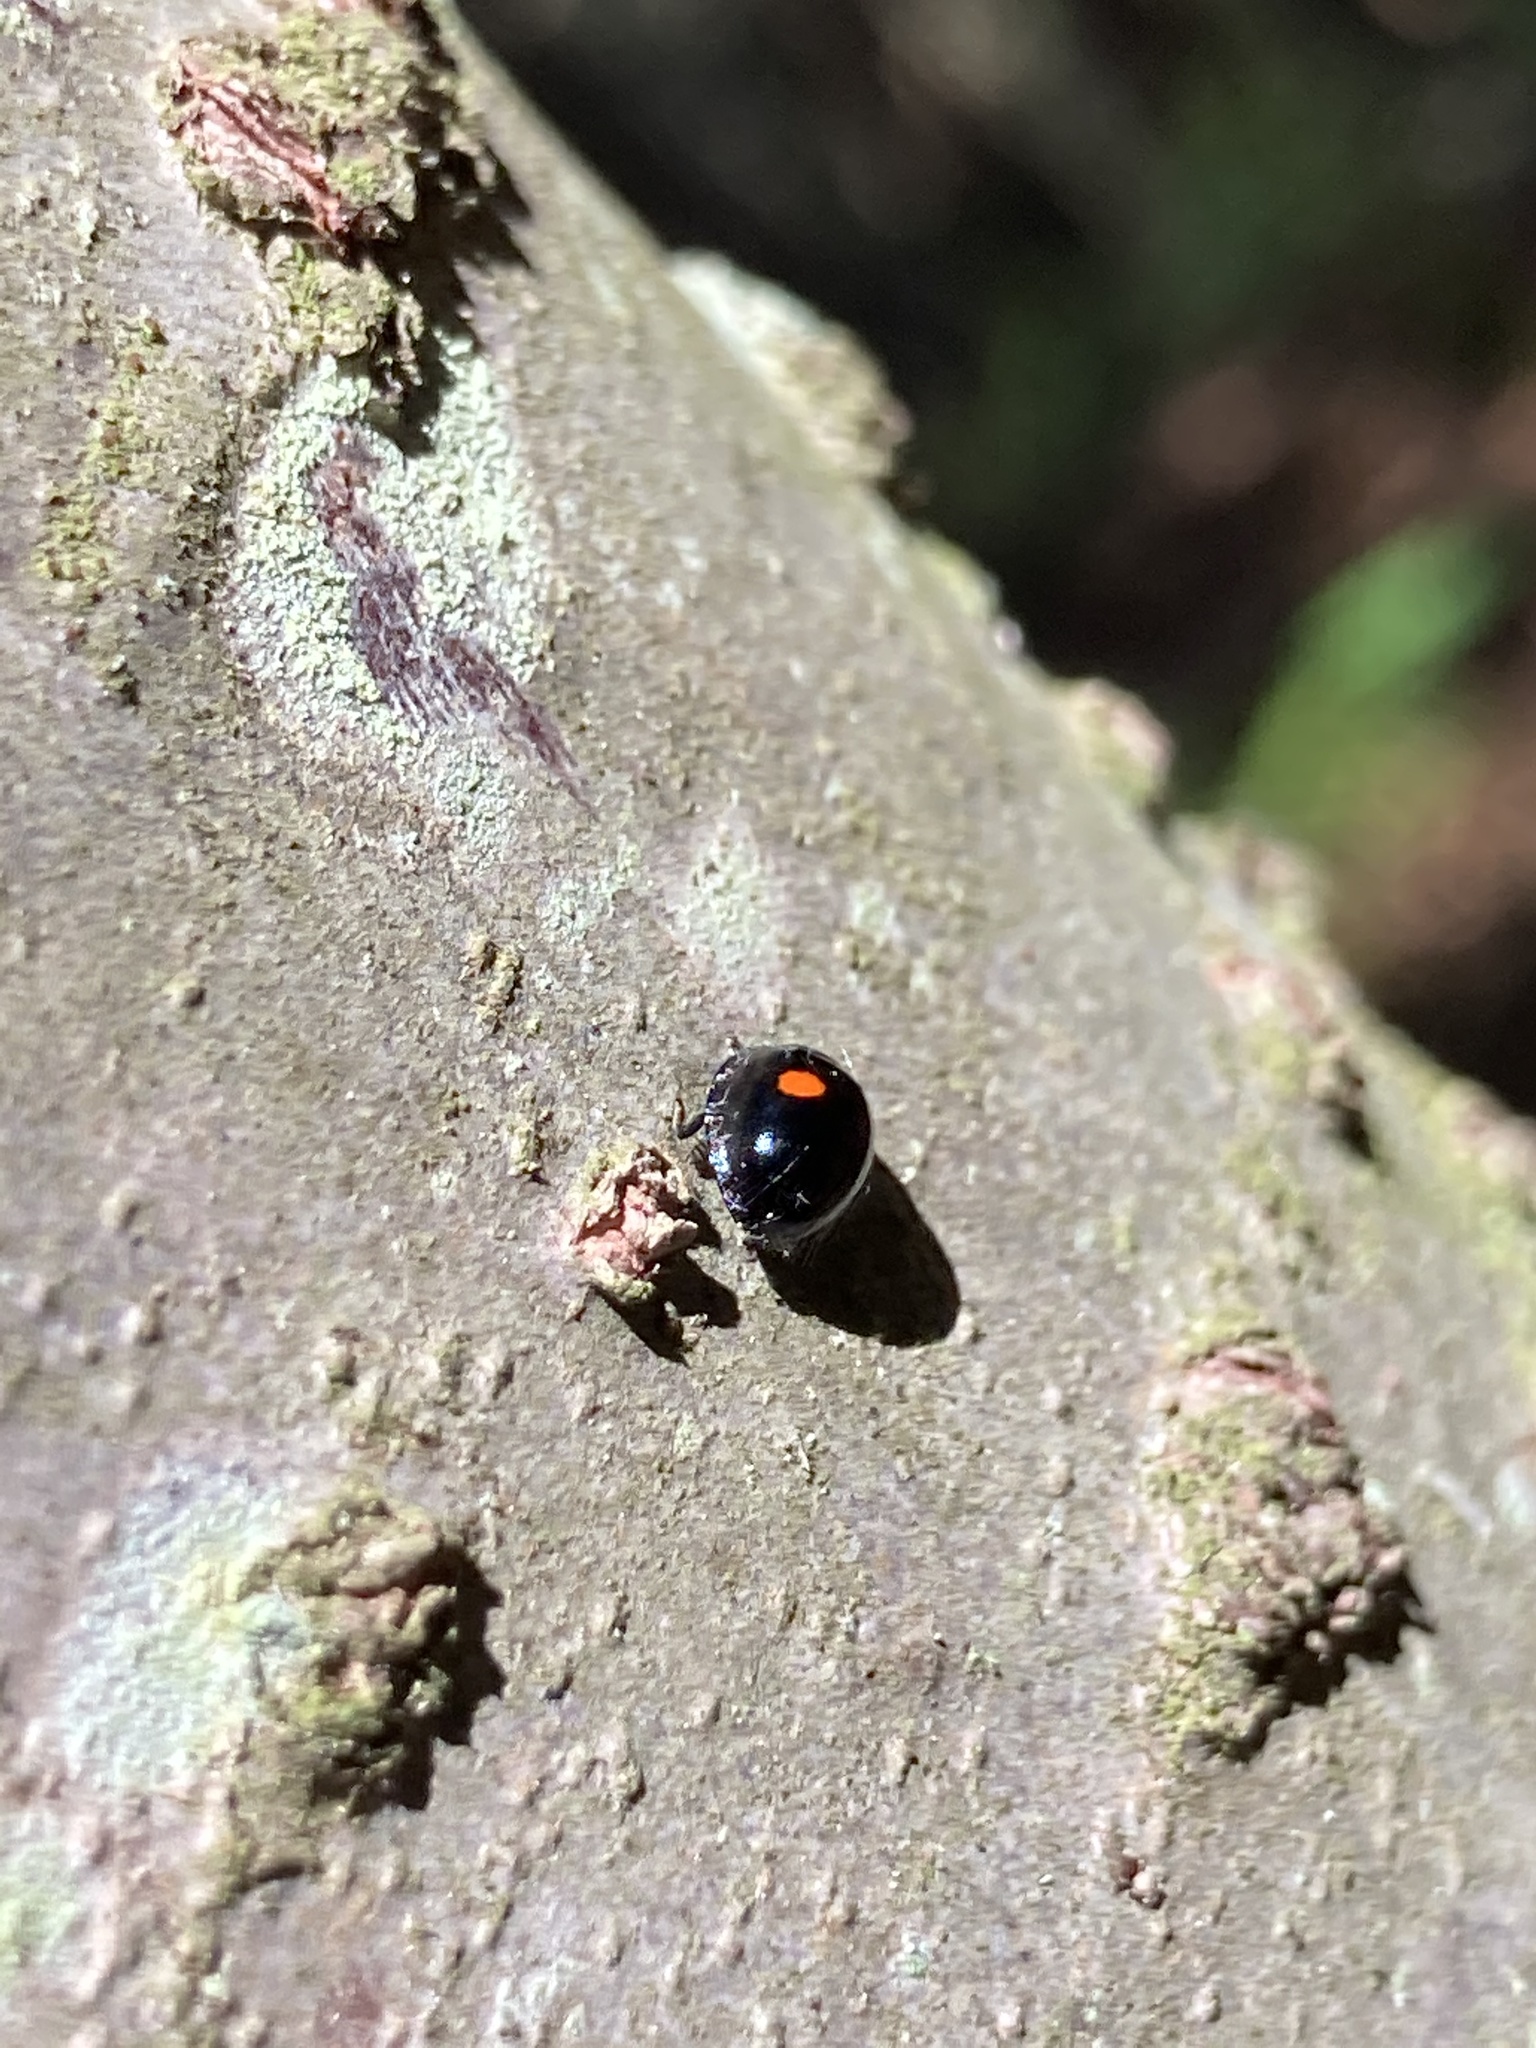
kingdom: Animalia
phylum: Arthropoda
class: Insecta
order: Coleoptera
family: Coccinellidae
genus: Chilocorus
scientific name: Chilocorus stigma
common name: Twicestabbed lady beetle
